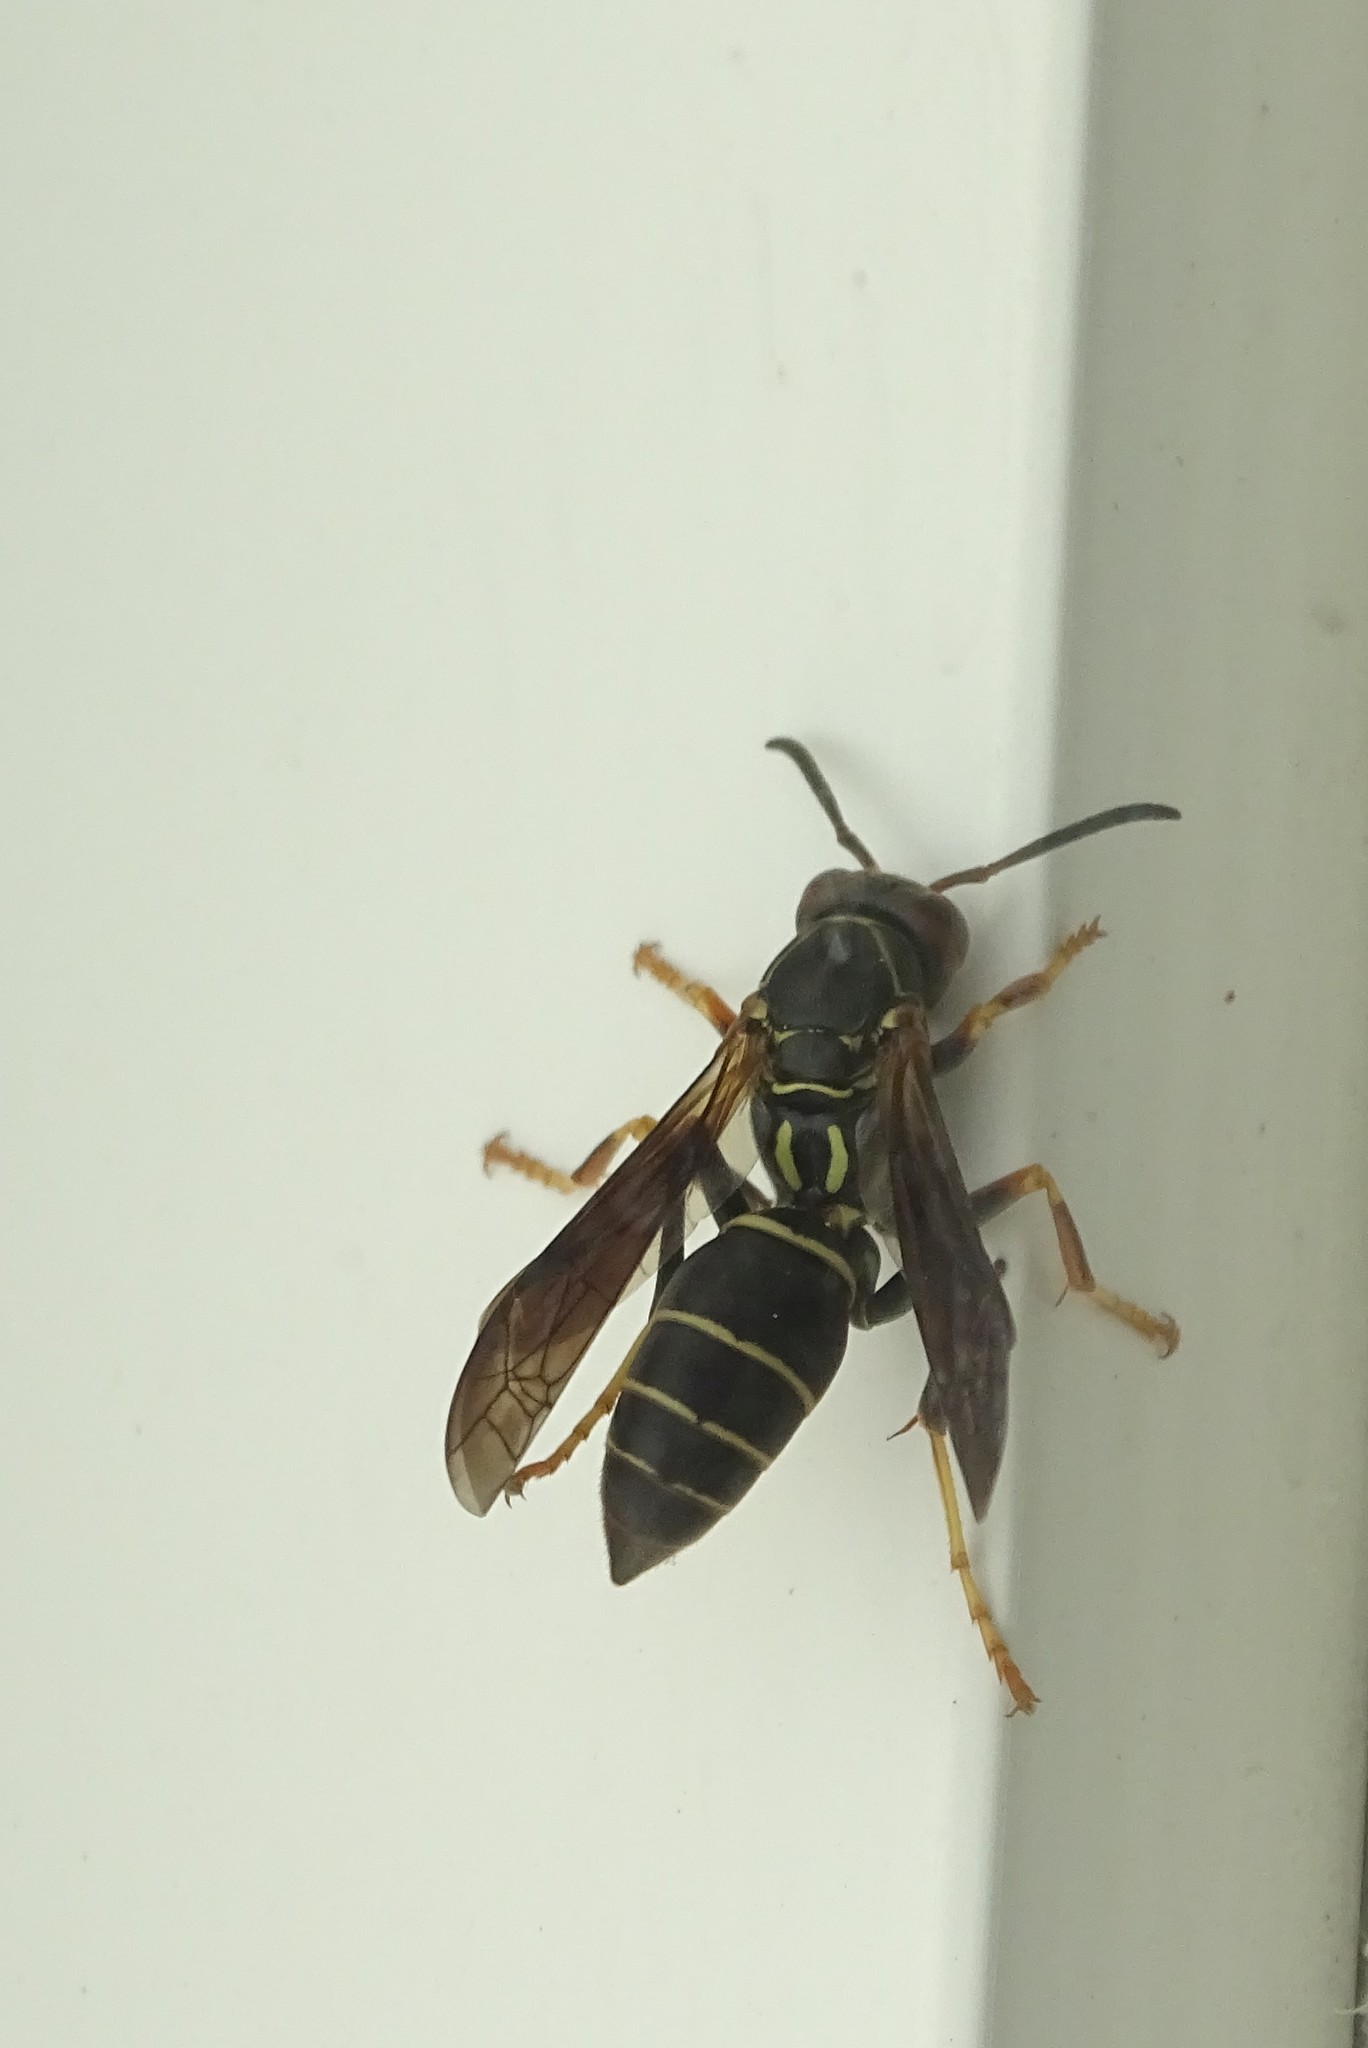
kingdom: Animalia
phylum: Arthropoda
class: Insecta
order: Hymenoptera
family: Eumenidae
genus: Polistes
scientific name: Polistes fuscatus
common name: Dark paper wasp
